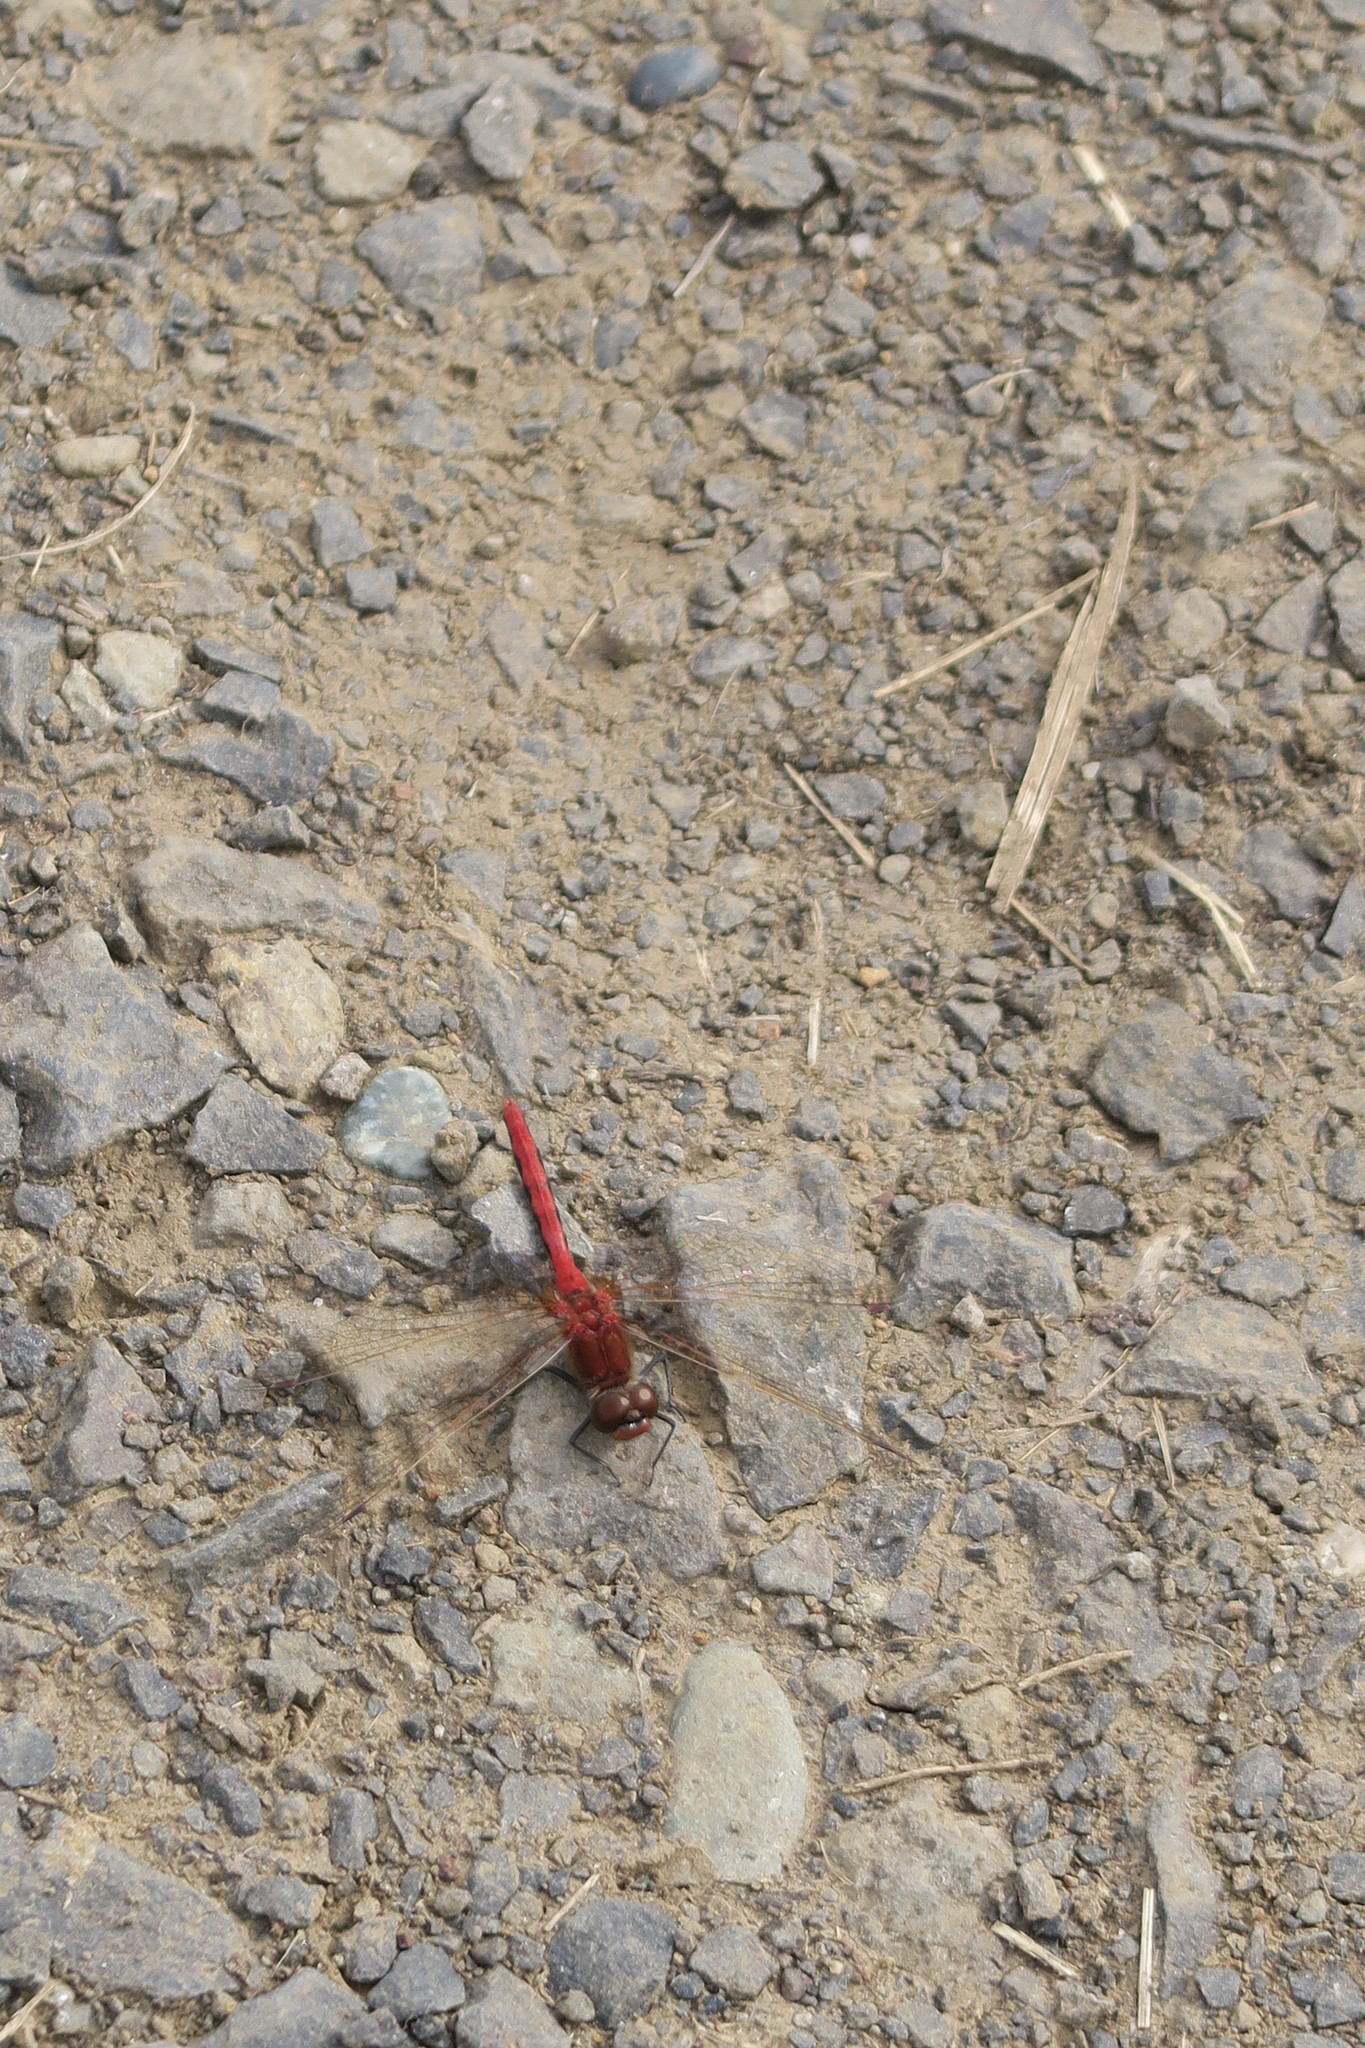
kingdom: Animalia
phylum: Arthropoda
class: Insecta
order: Odonata
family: Libellulidae
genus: Sympetrum
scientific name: Sympetrum internum
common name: Cherry-faced meadowhawk
